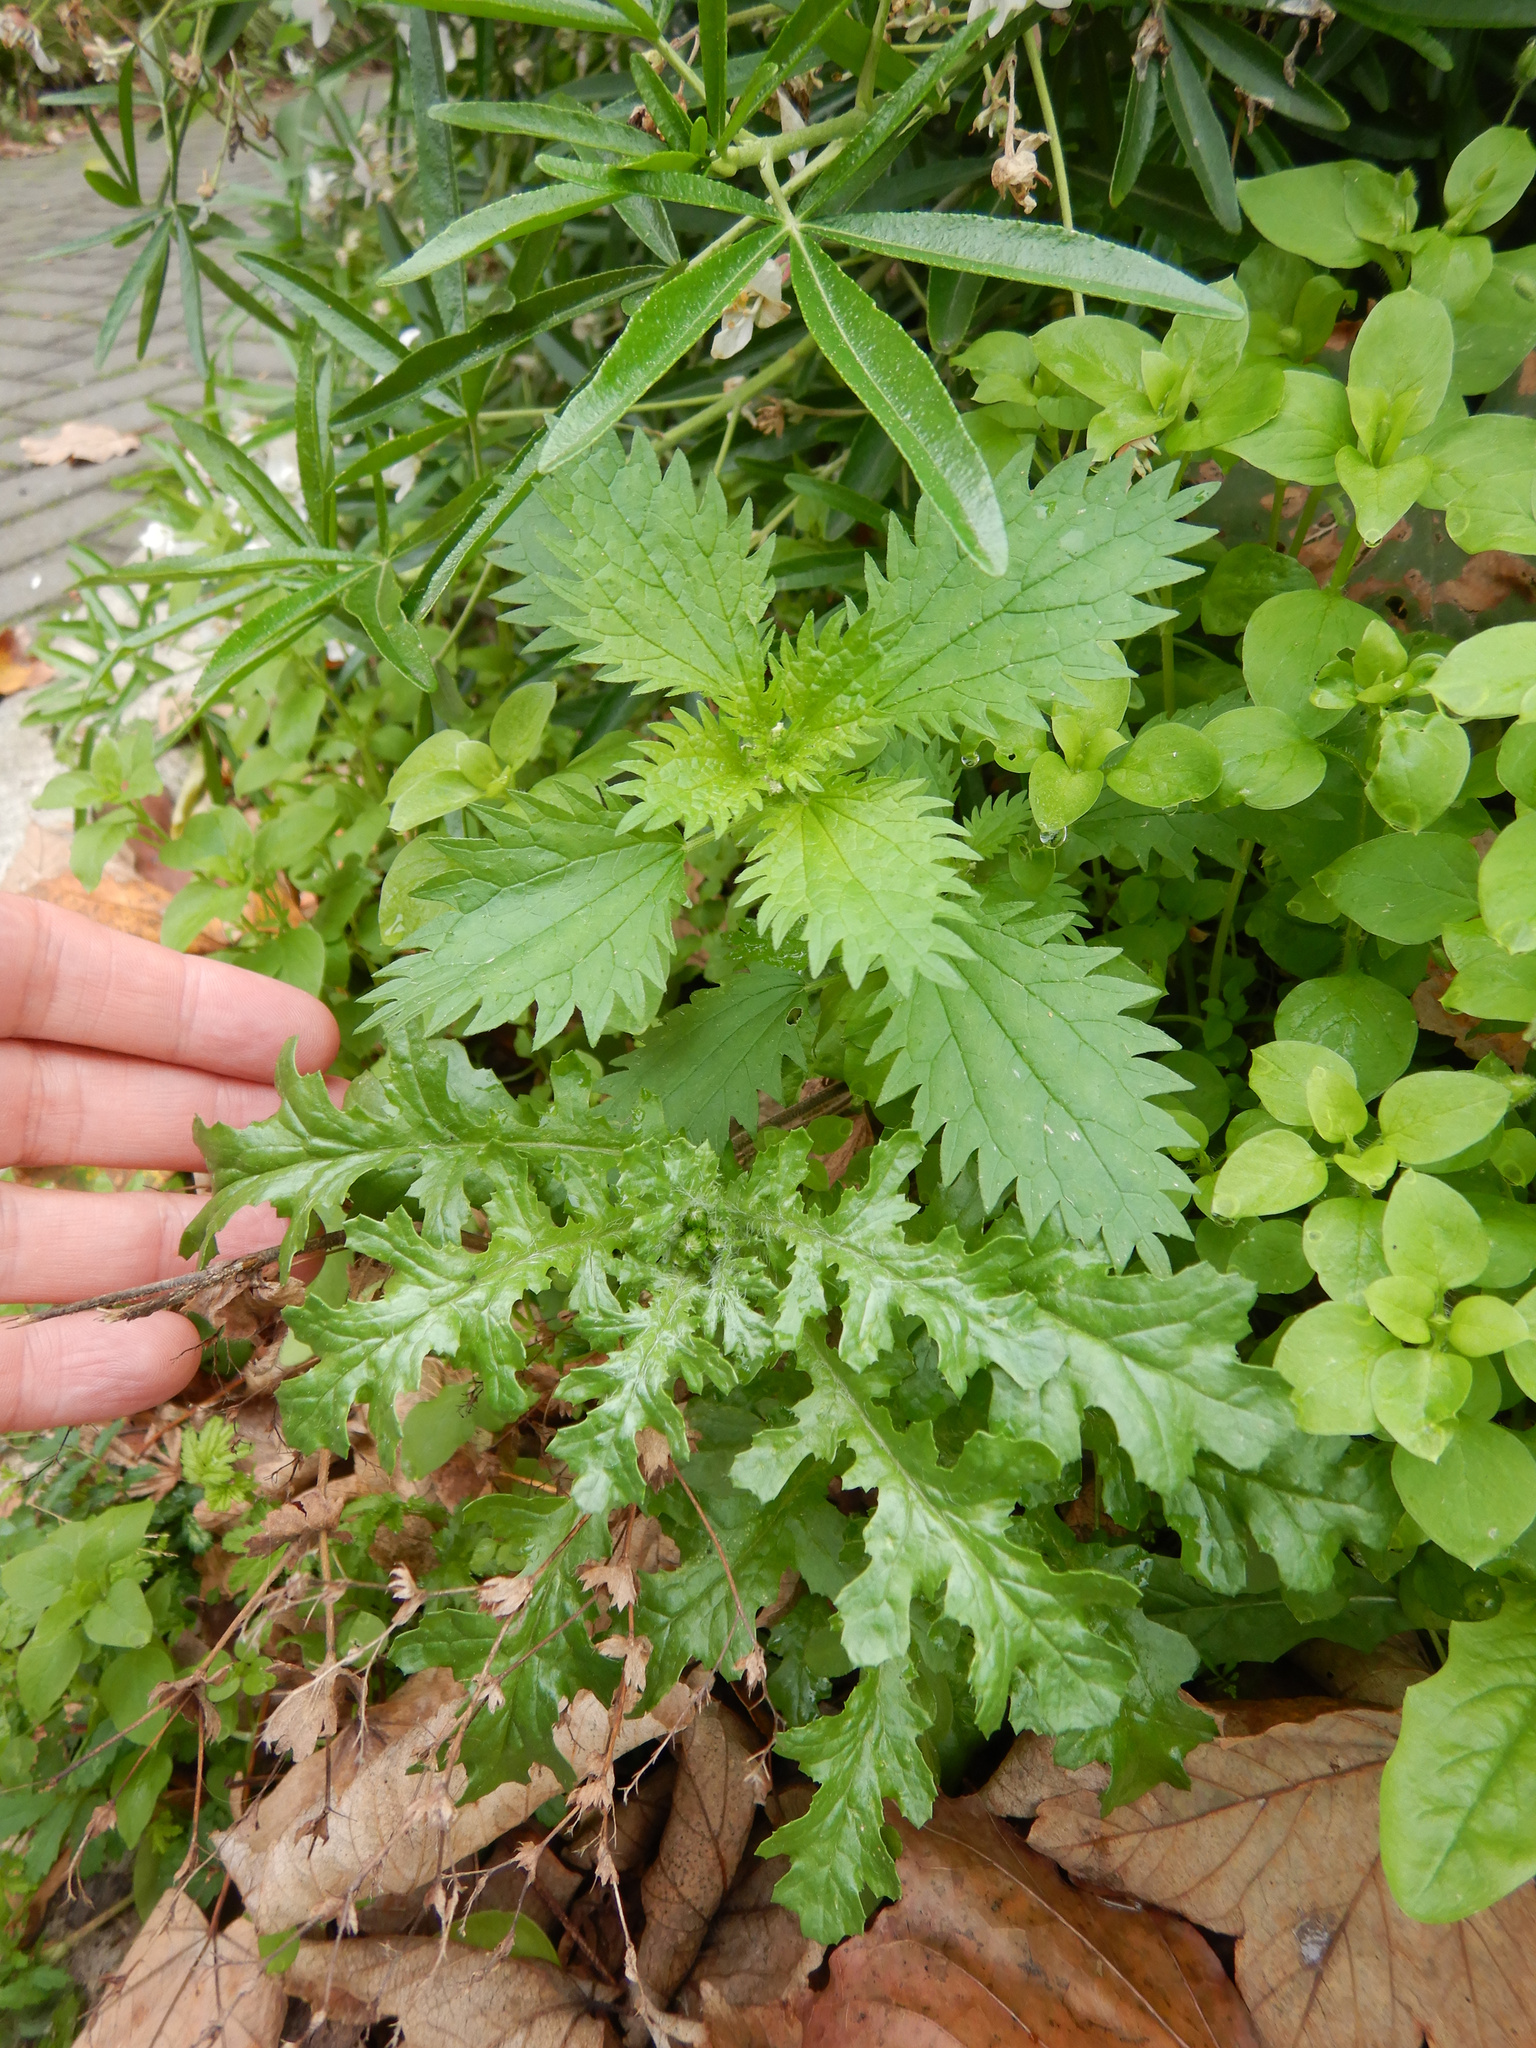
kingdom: Plantae
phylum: Tracheophyta
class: Magnoliopsida
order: Asterales
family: Asteraceae
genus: Senecio
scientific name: Senecio vulgaris
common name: Old-man-in-the-spring
